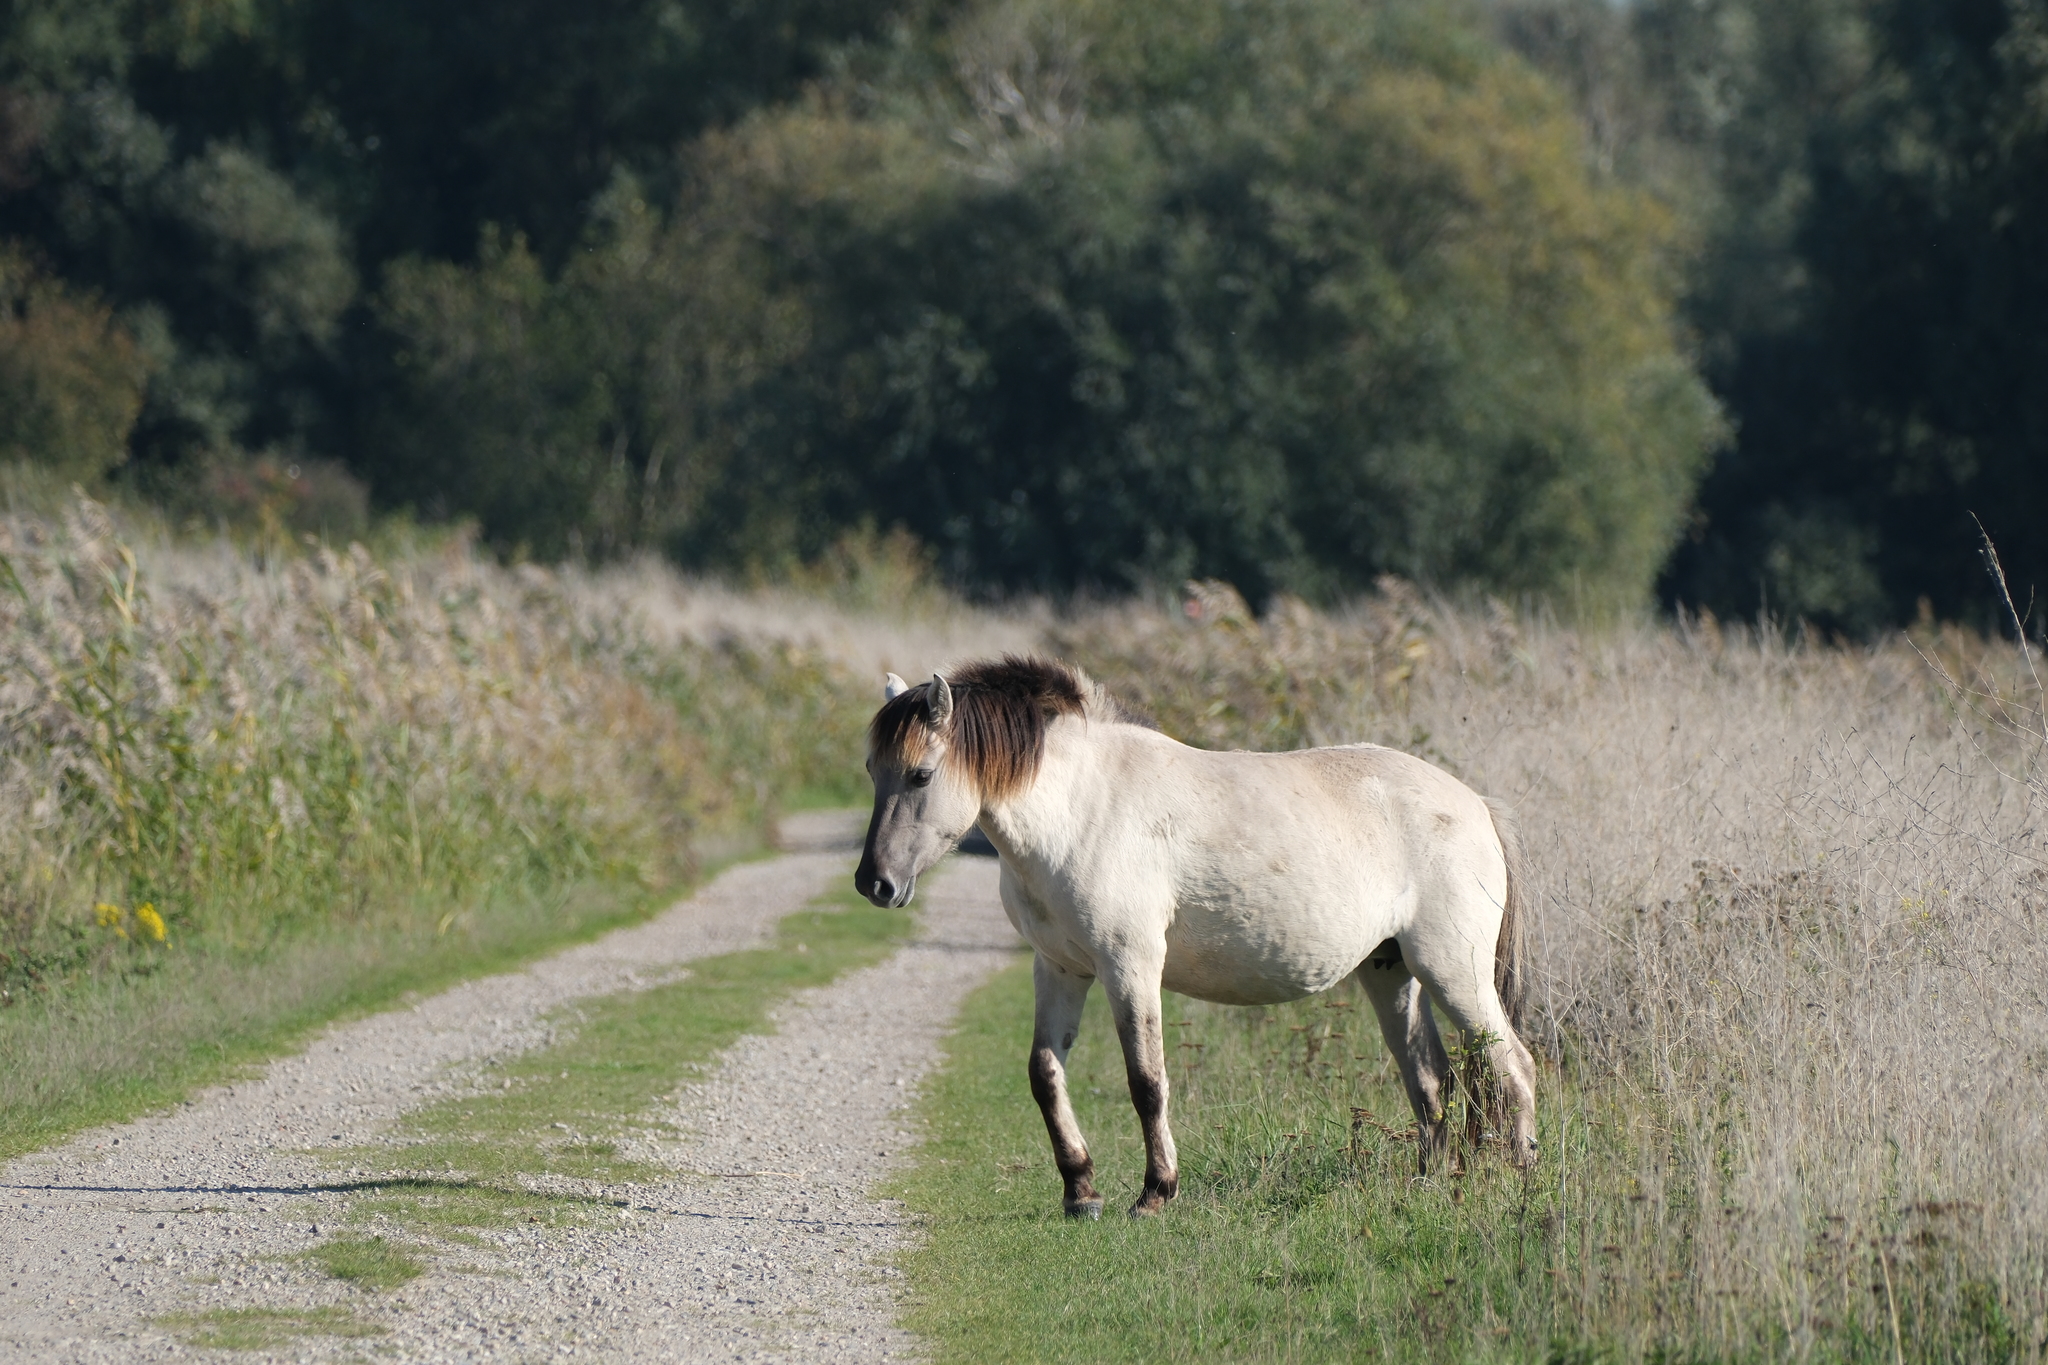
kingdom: Animalia
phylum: Chordata
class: Mammalia
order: Perissodactyla
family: Equidae
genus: Equus
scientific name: Equus caballus
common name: Horse
